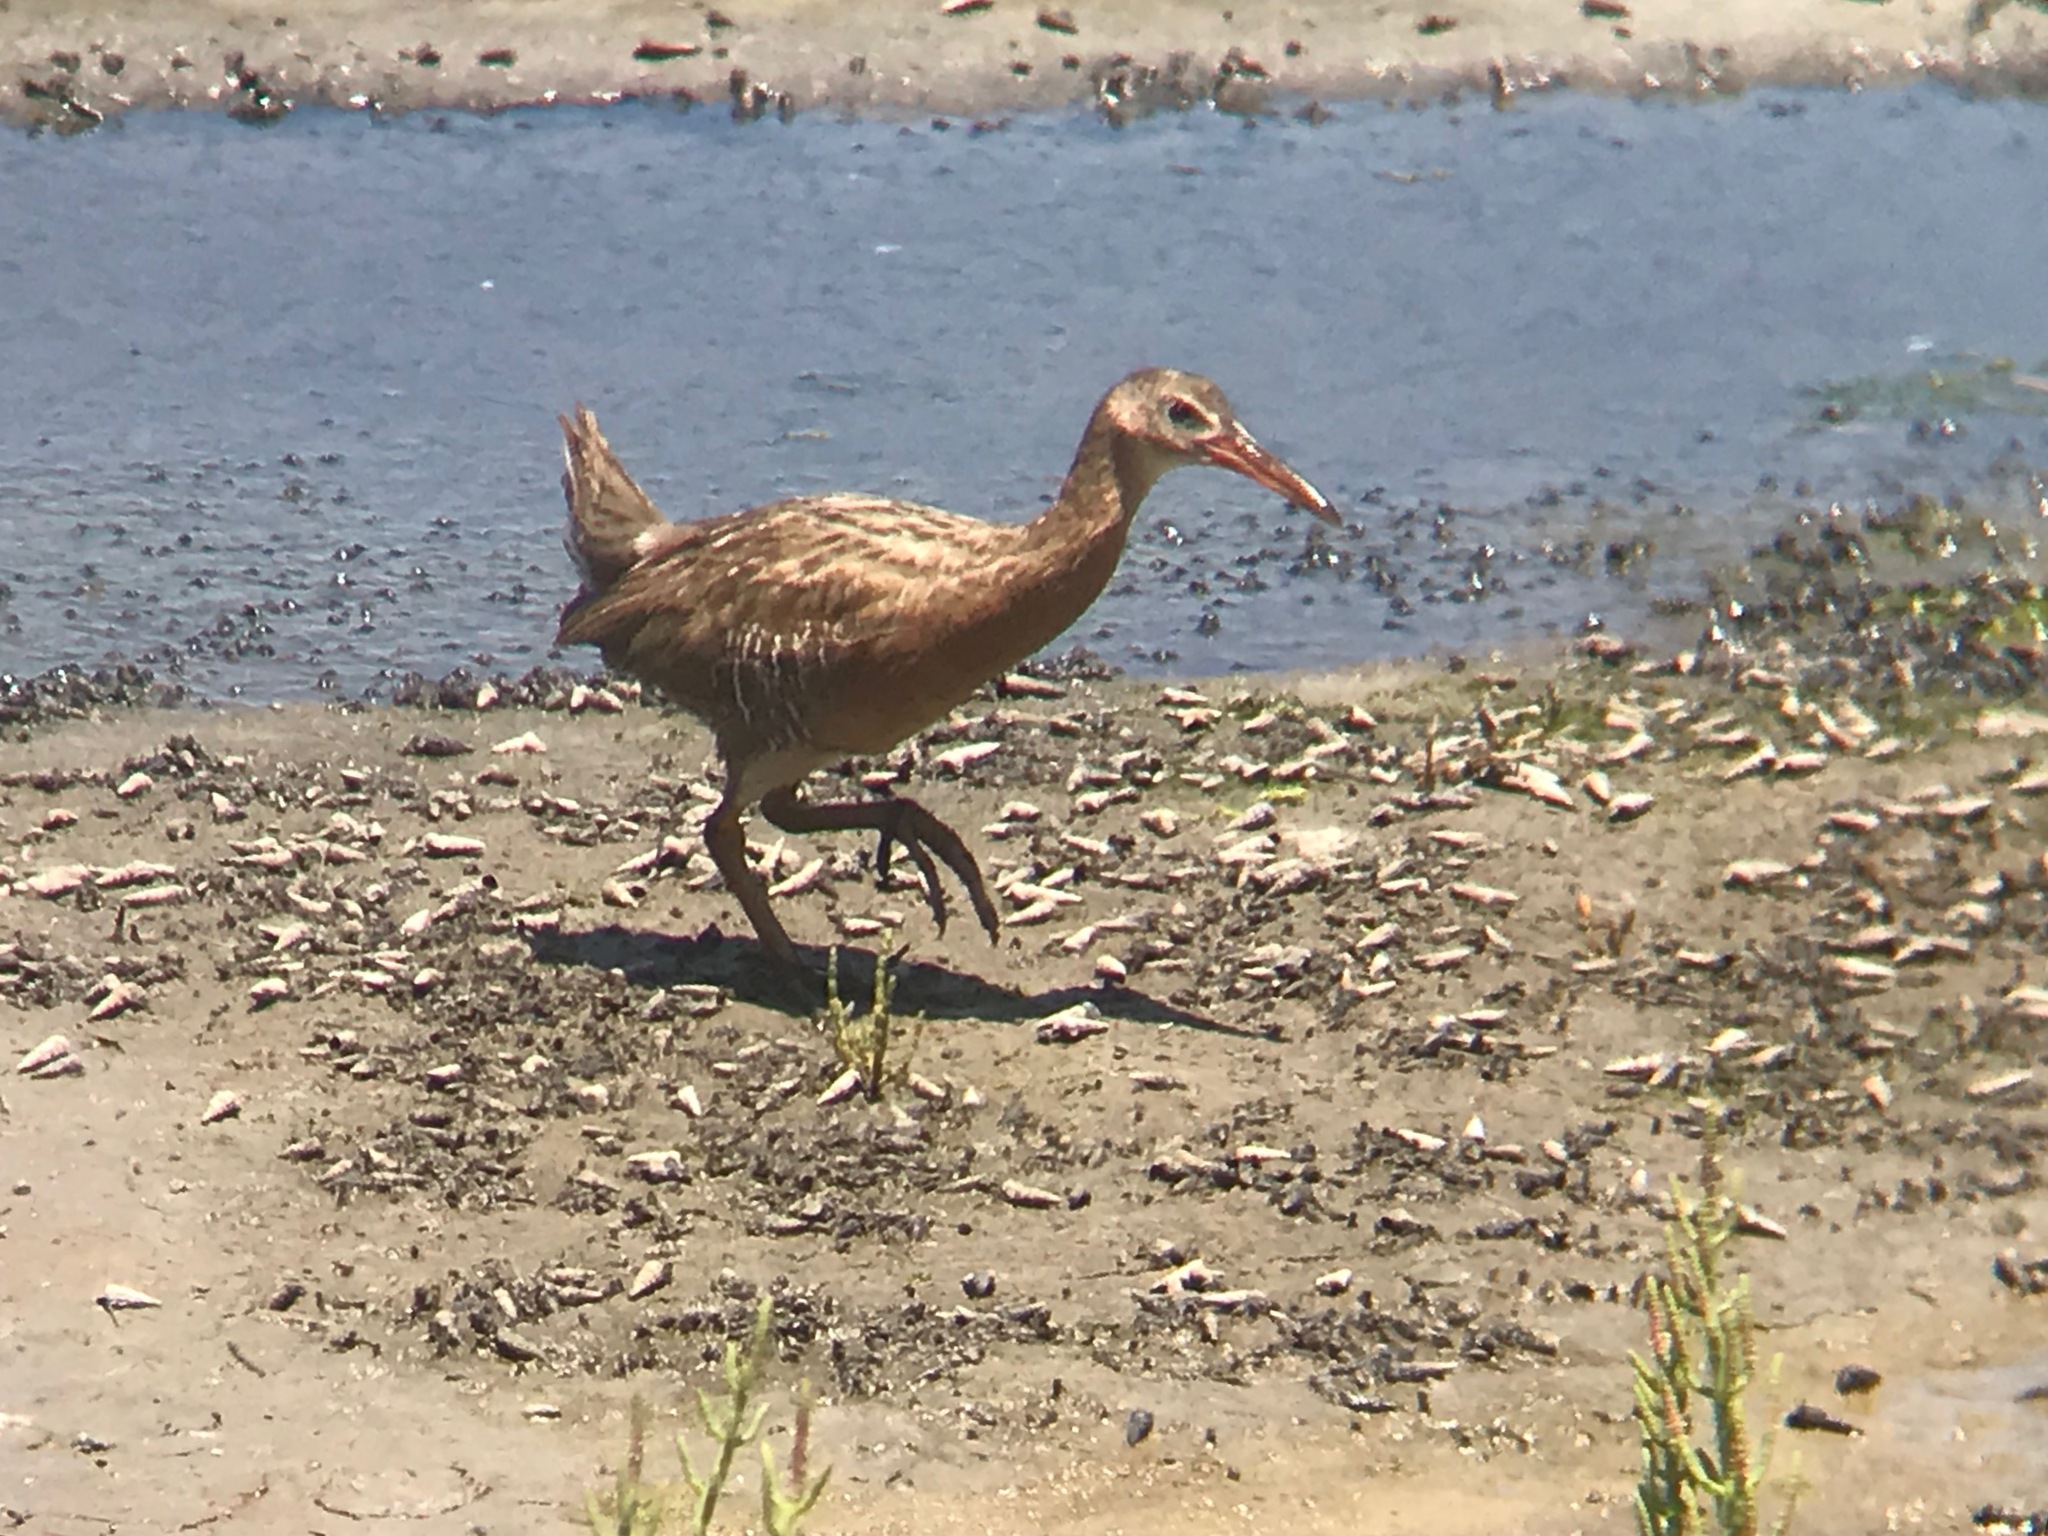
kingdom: Animalia
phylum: Chordata
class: Aves
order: Gruiformes
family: Rallidae
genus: Rallus
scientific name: Rallus obsoletus
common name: Ridgway's rail
